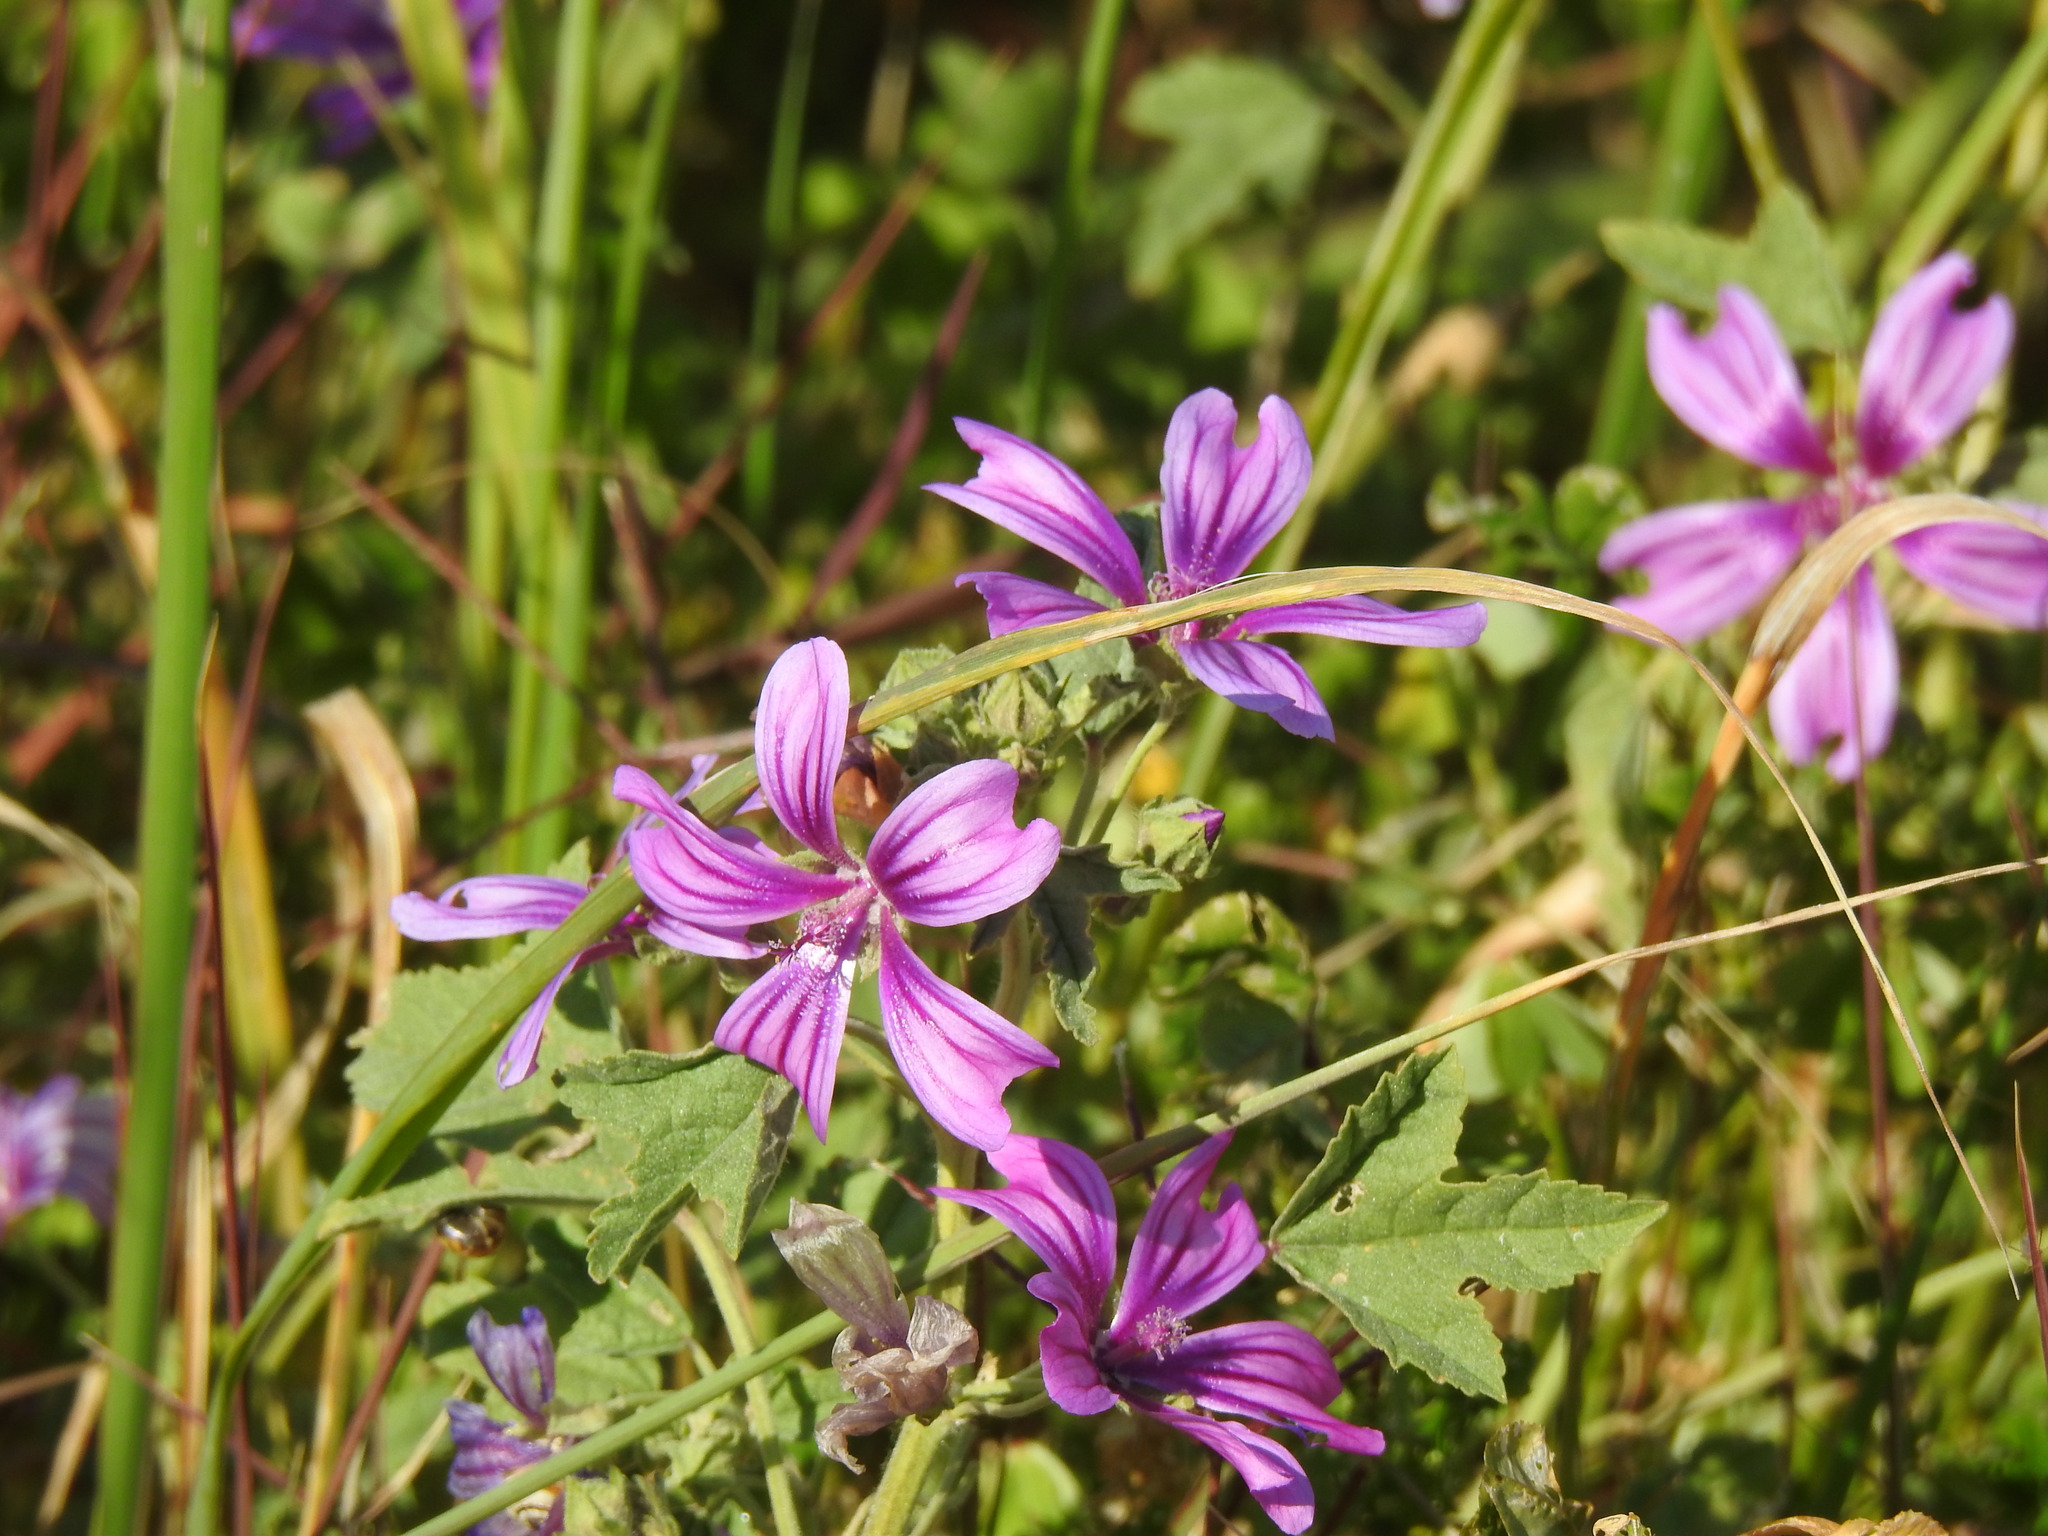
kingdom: Plantae
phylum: Tracheophyta
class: Magnoliopsida
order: Malvales
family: Malvaceae
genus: Malva
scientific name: Malva sylvestris
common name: Common mallow
